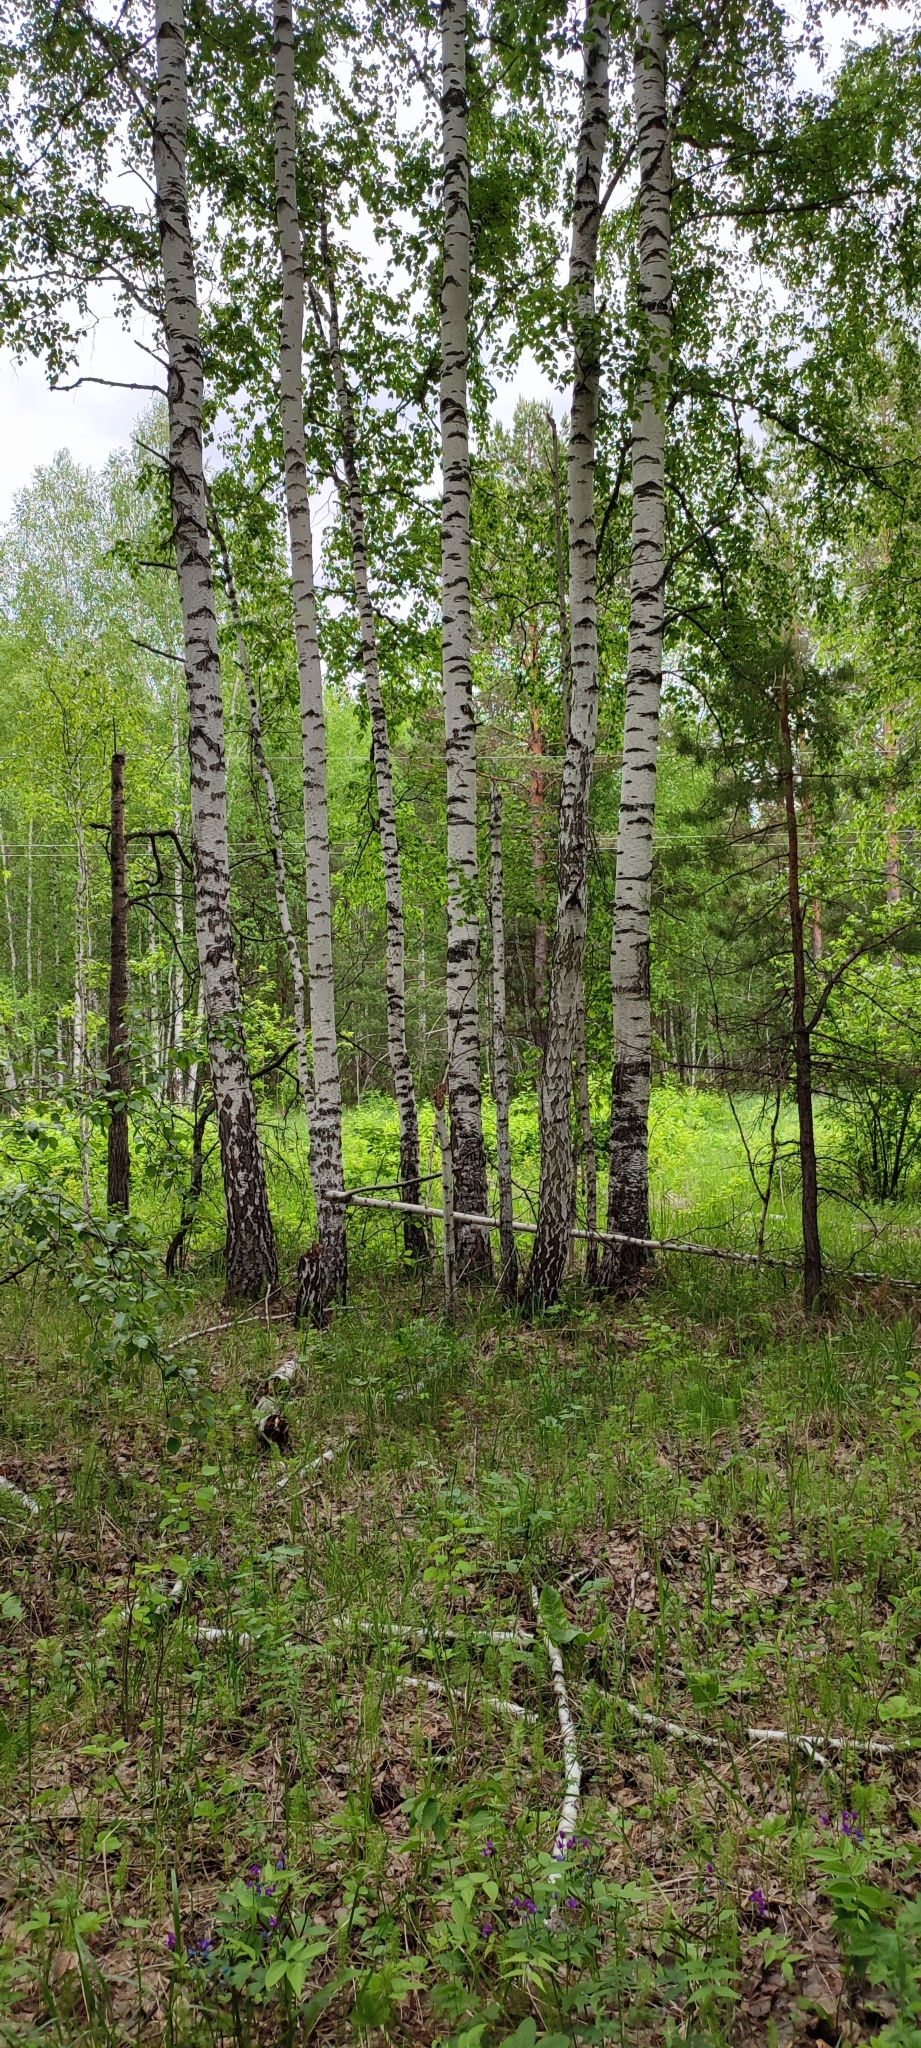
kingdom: Plantae
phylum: Tracheophyta
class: Magnoliopsida
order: Fagales
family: Betulaceae
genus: Betula
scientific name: Betula pendula
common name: Silver birch
